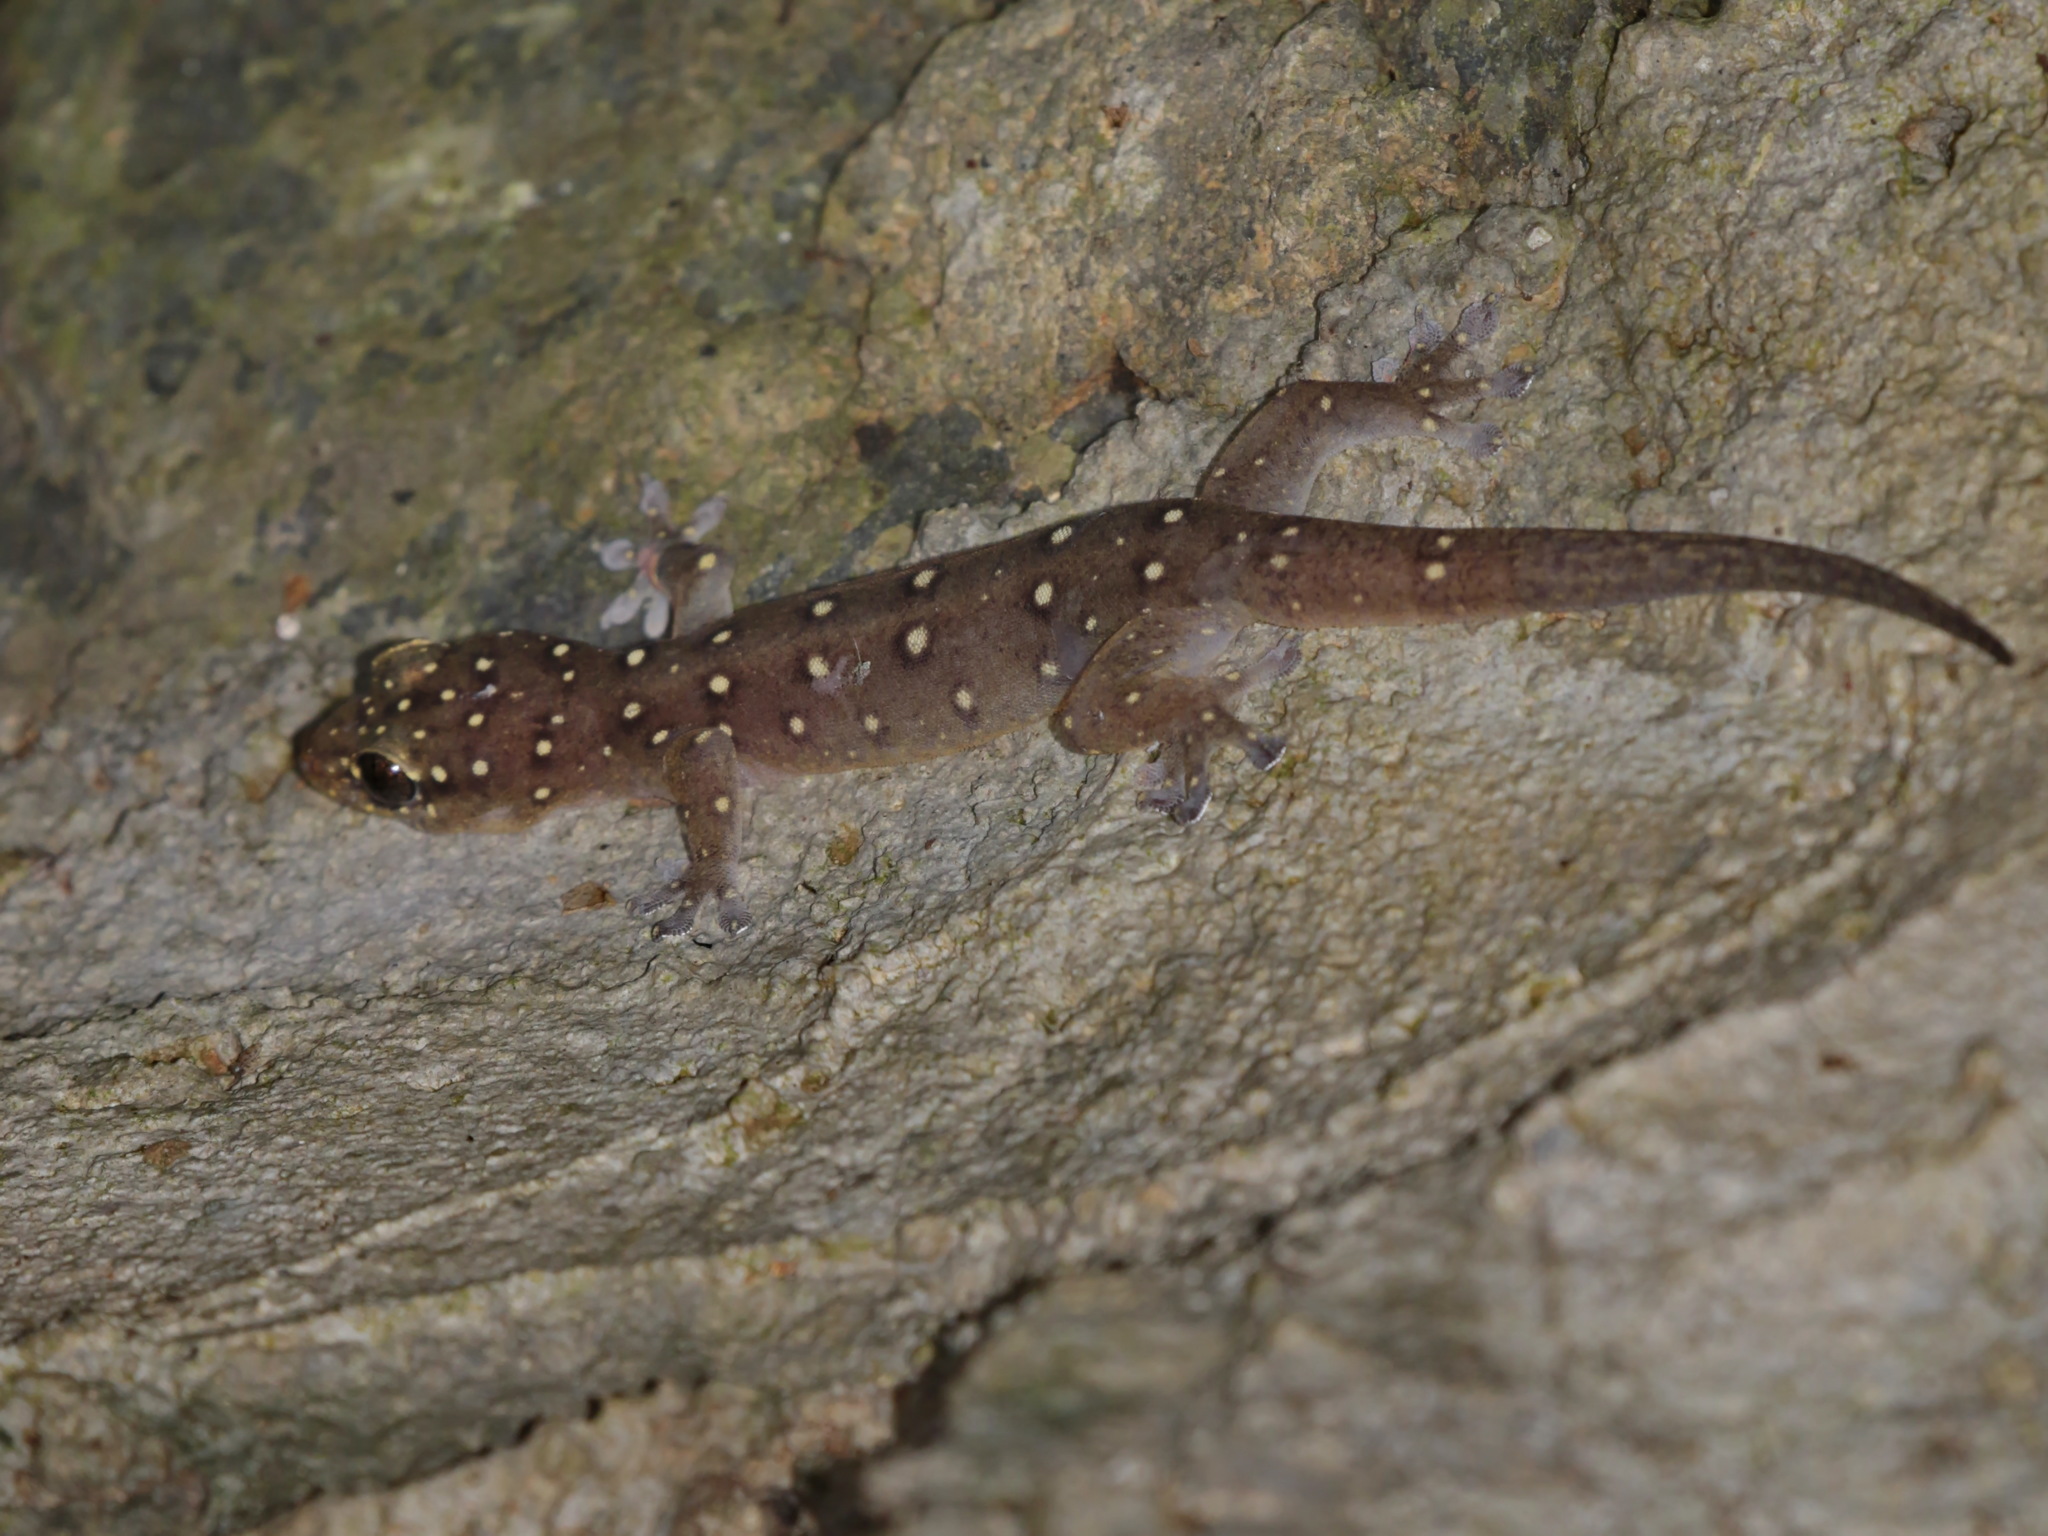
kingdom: Animalia
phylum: Chordata
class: Squamata
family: Gekkonidae
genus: Gehyra
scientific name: Gehyra angusticaudata
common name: Narrow-tailed four-clawed gecko
